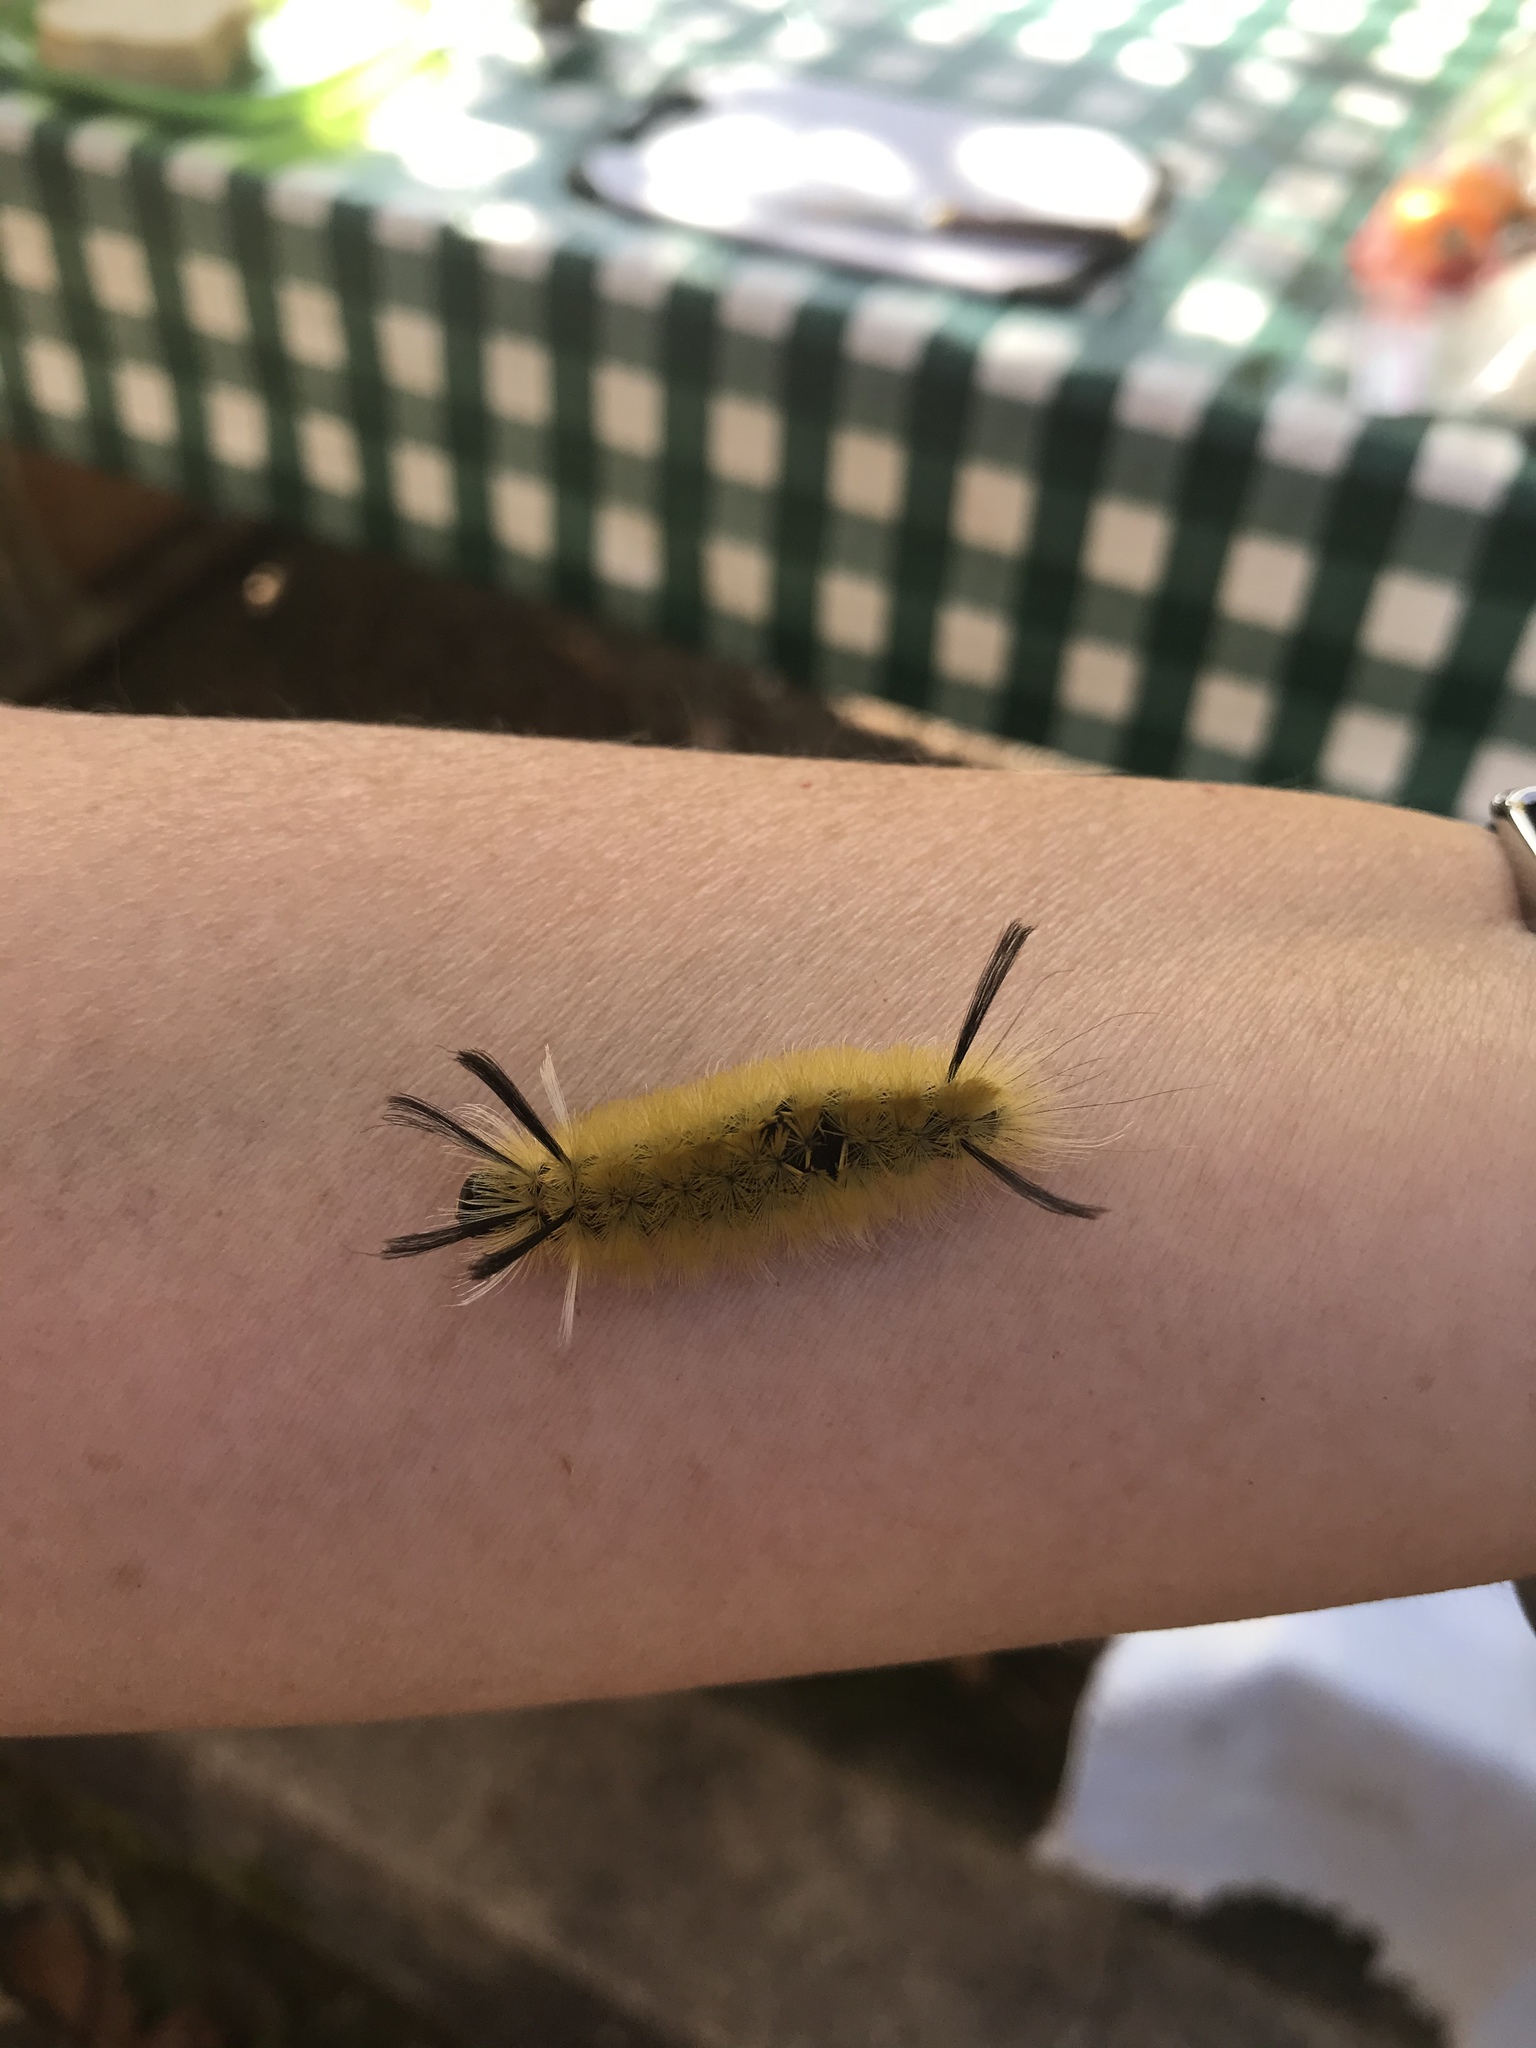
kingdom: Animalia
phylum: Arthropoda
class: Insecta
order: Lepidoptera
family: Erebidae
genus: Halysidota
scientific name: Halysidota tessellaris
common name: Banded tussock moth
